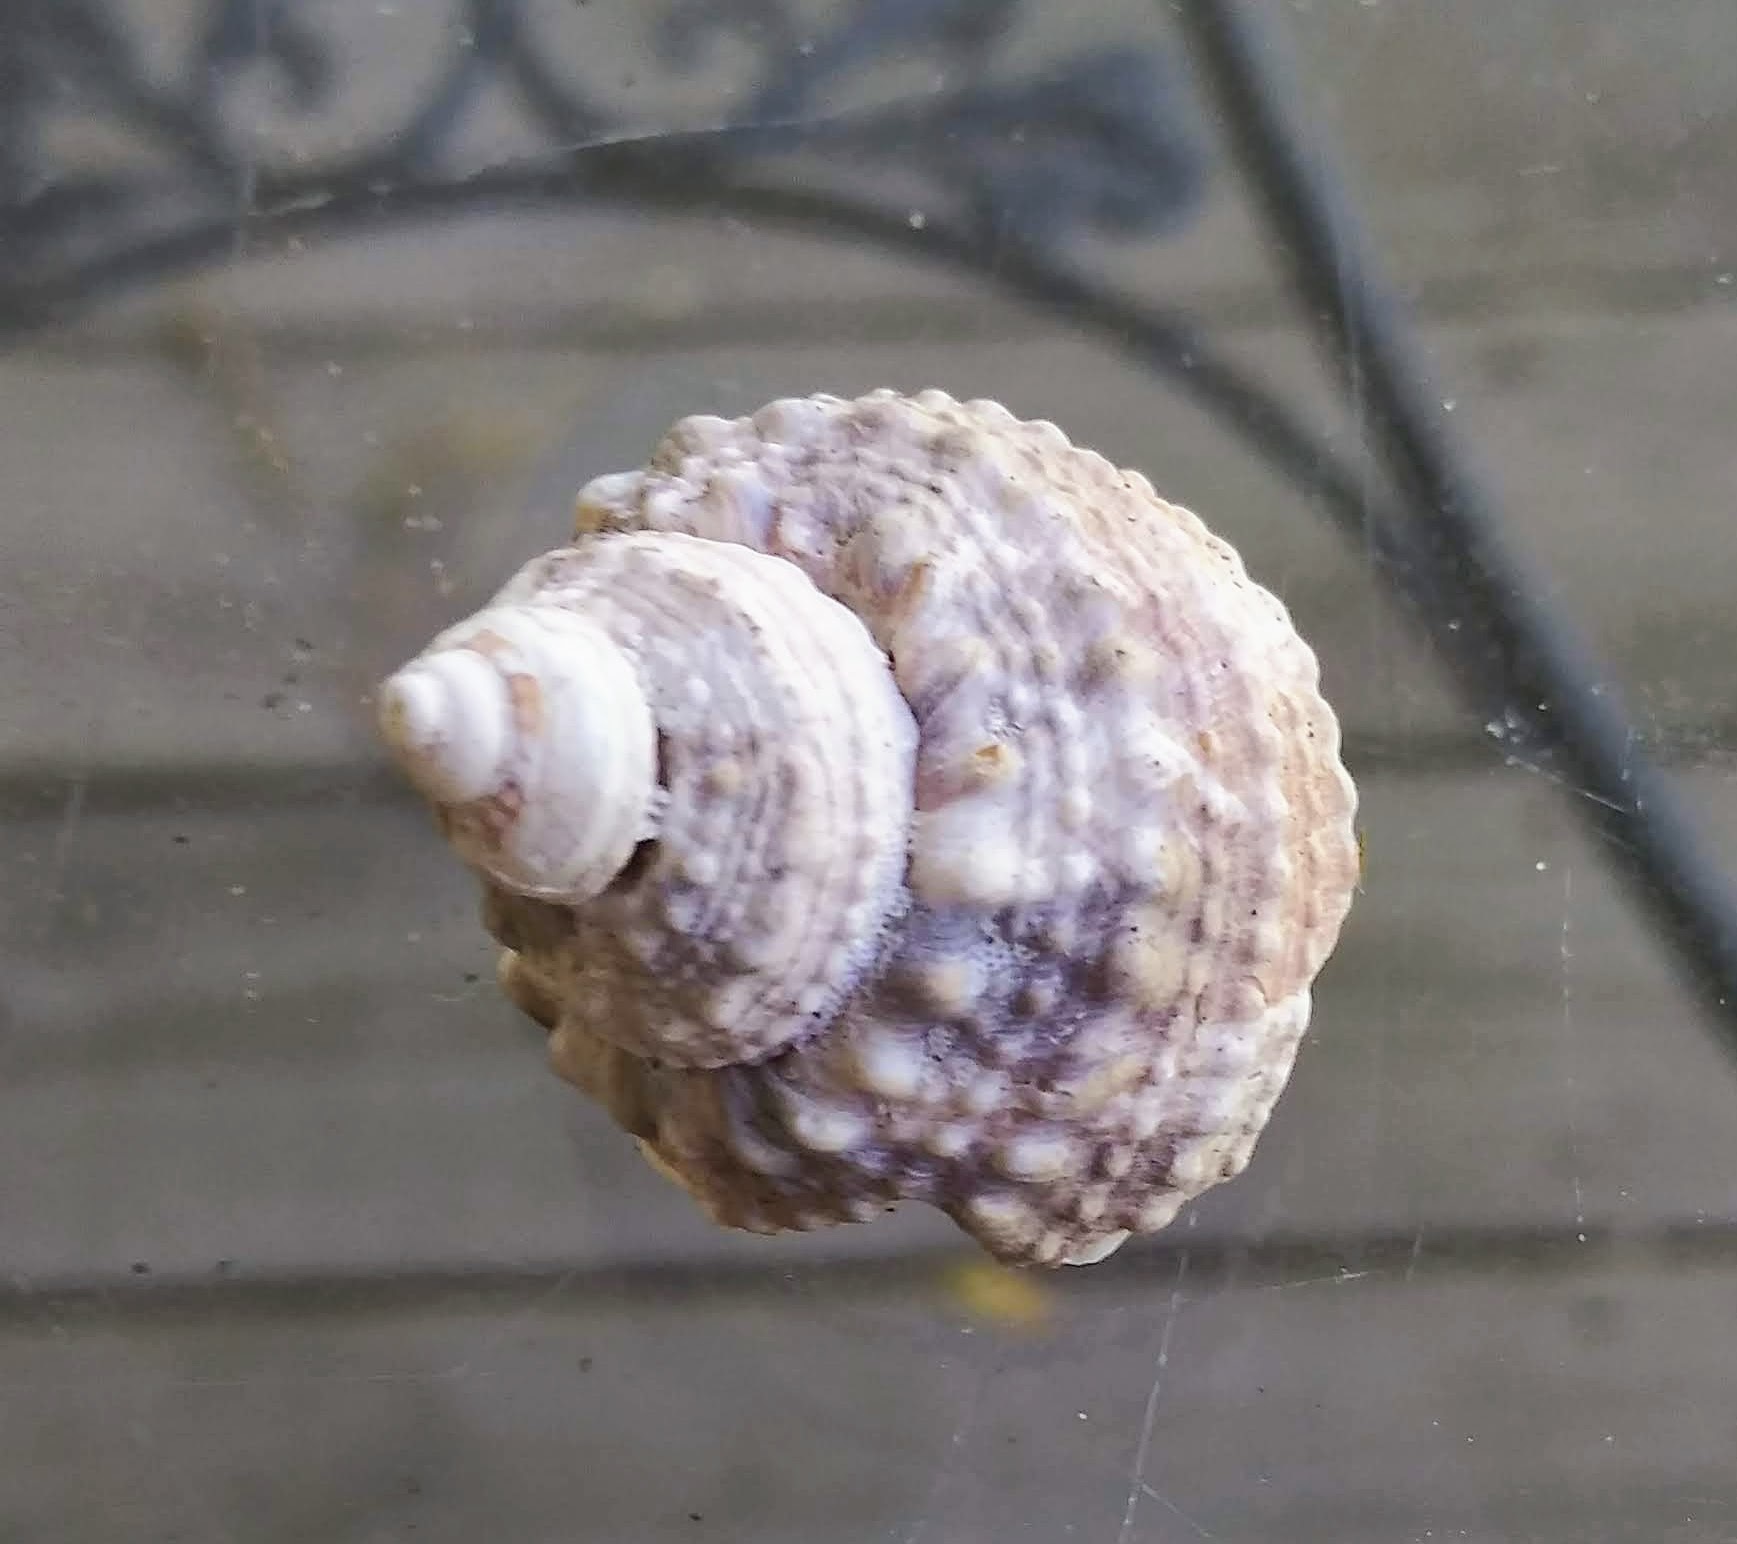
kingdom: Animalia
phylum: Mollusca
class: Gastropoda
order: Trochida
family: Turbinidae
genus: Turbo
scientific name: Turbo castanea
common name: Chestnut turban
